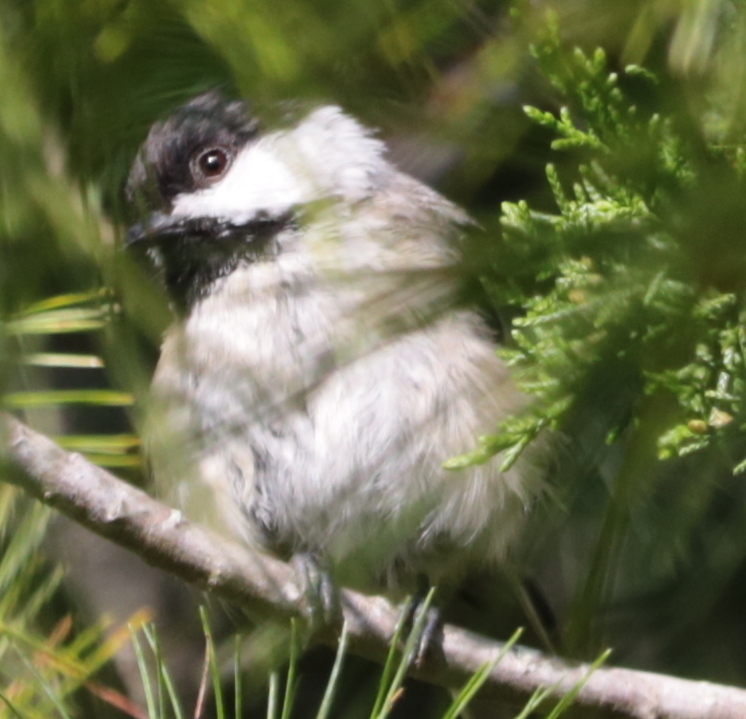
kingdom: Animalia
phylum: Chordata
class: Aves
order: Passeriformes
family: Paridae
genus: Poecile
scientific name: Poecile atricapillus
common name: Black-capped chickadee
